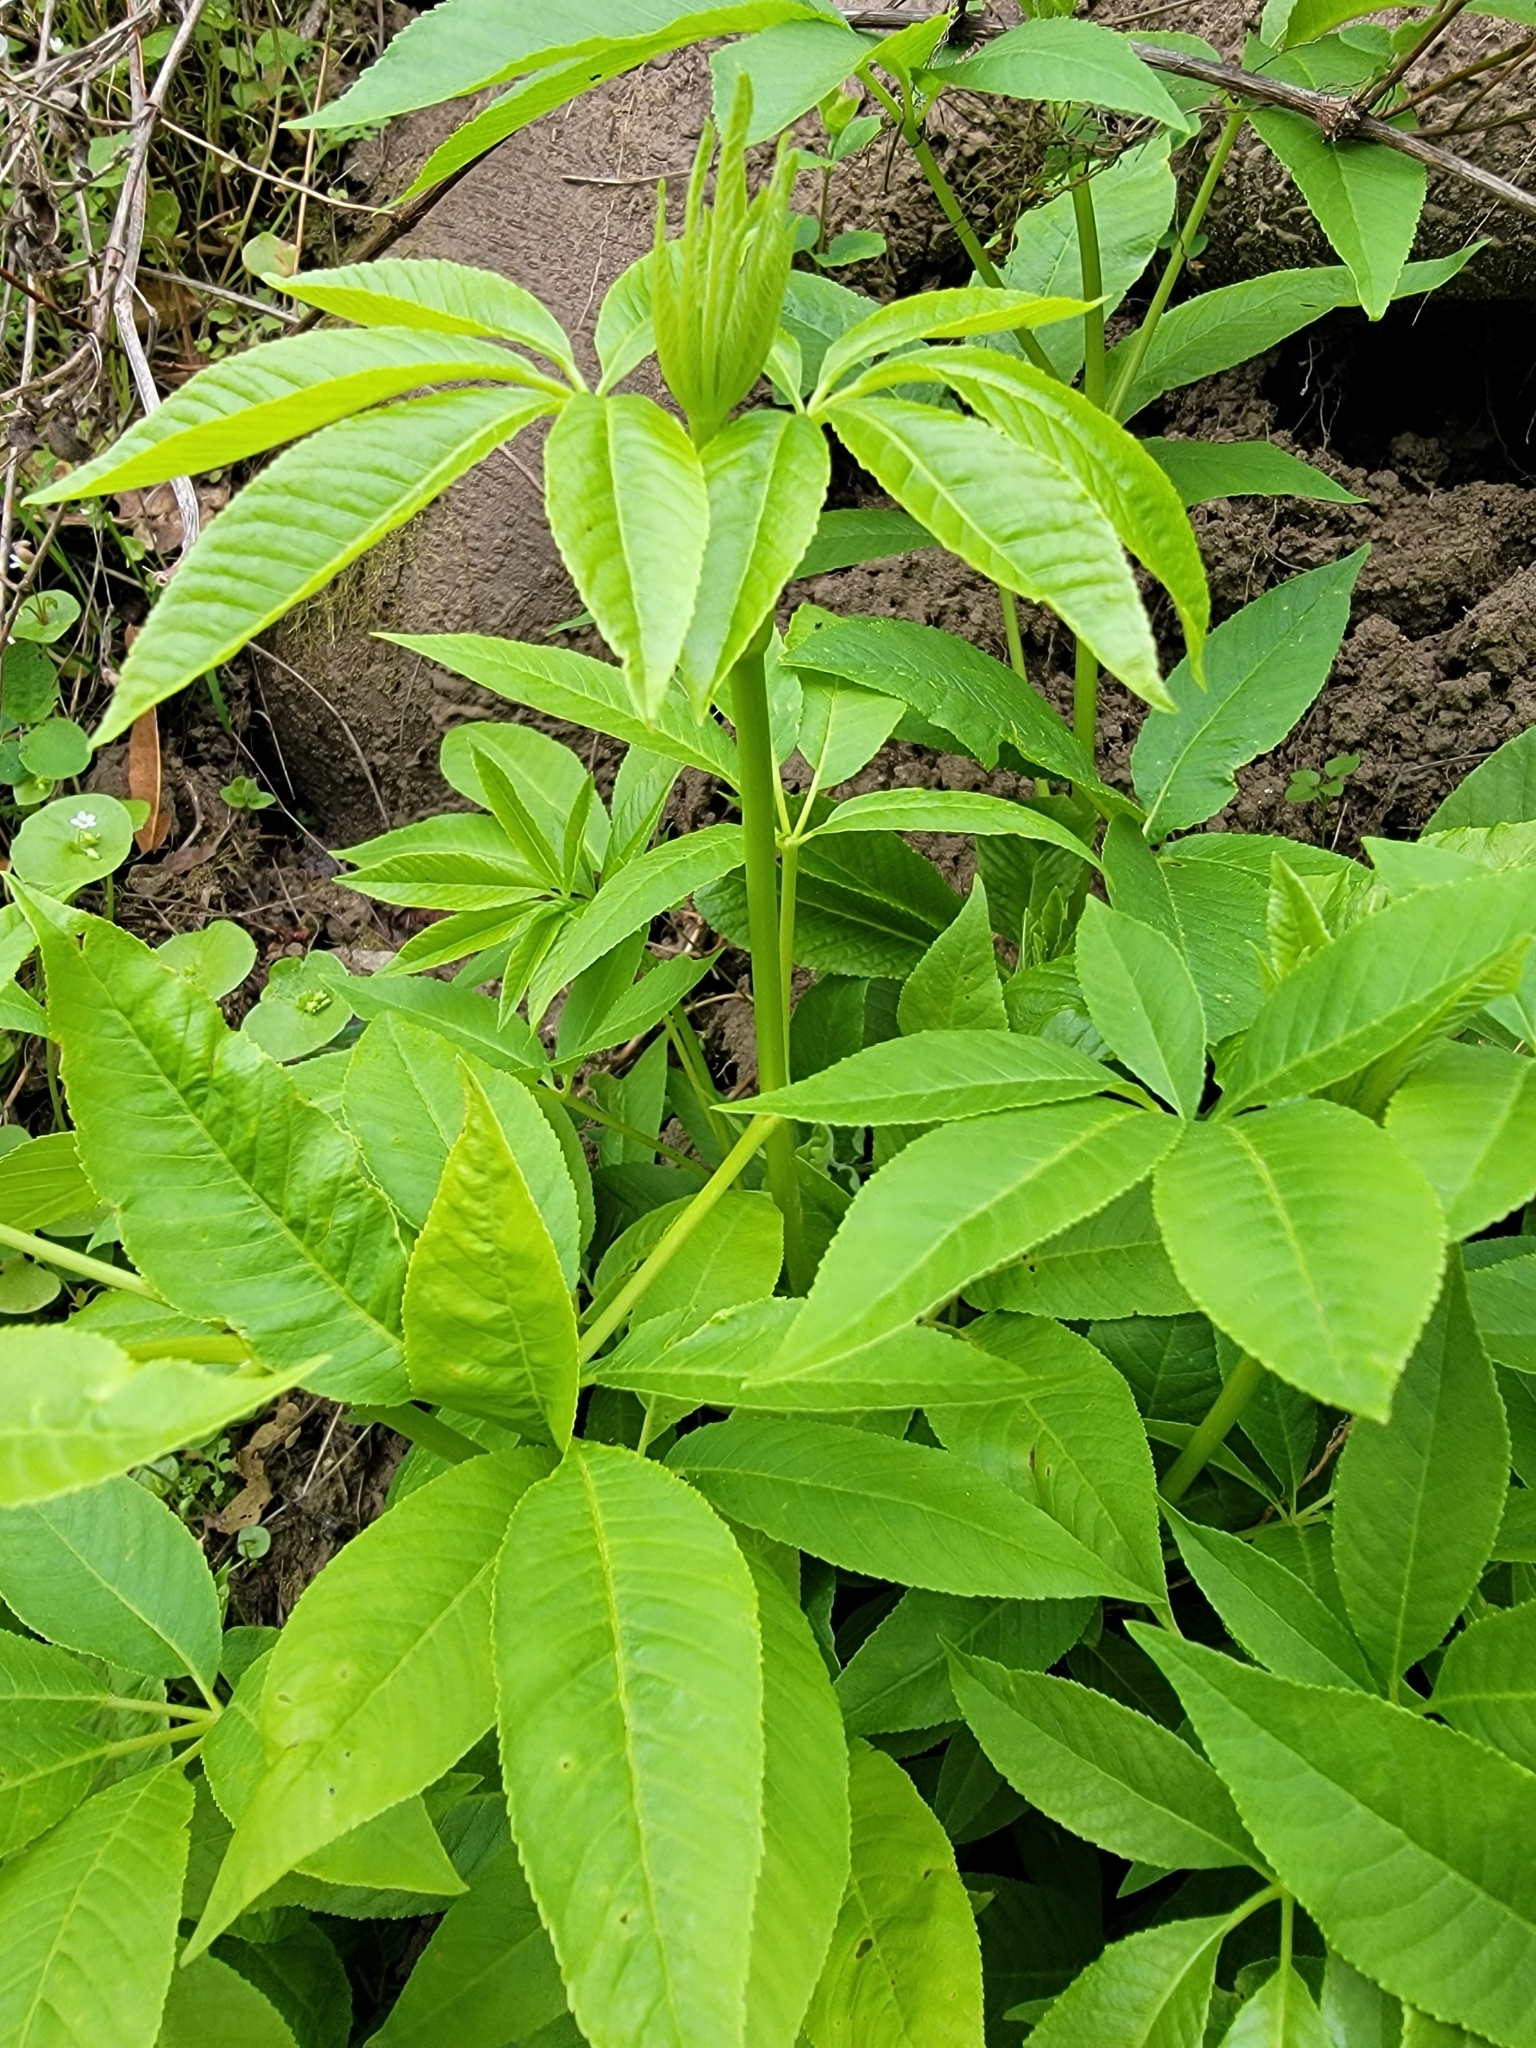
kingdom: Plantae
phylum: Tracheophyta
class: Magnoliopsida
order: Sapindales
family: Sapindaceae
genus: Aesculus
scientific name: Aesculus californica
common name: California buckeye
